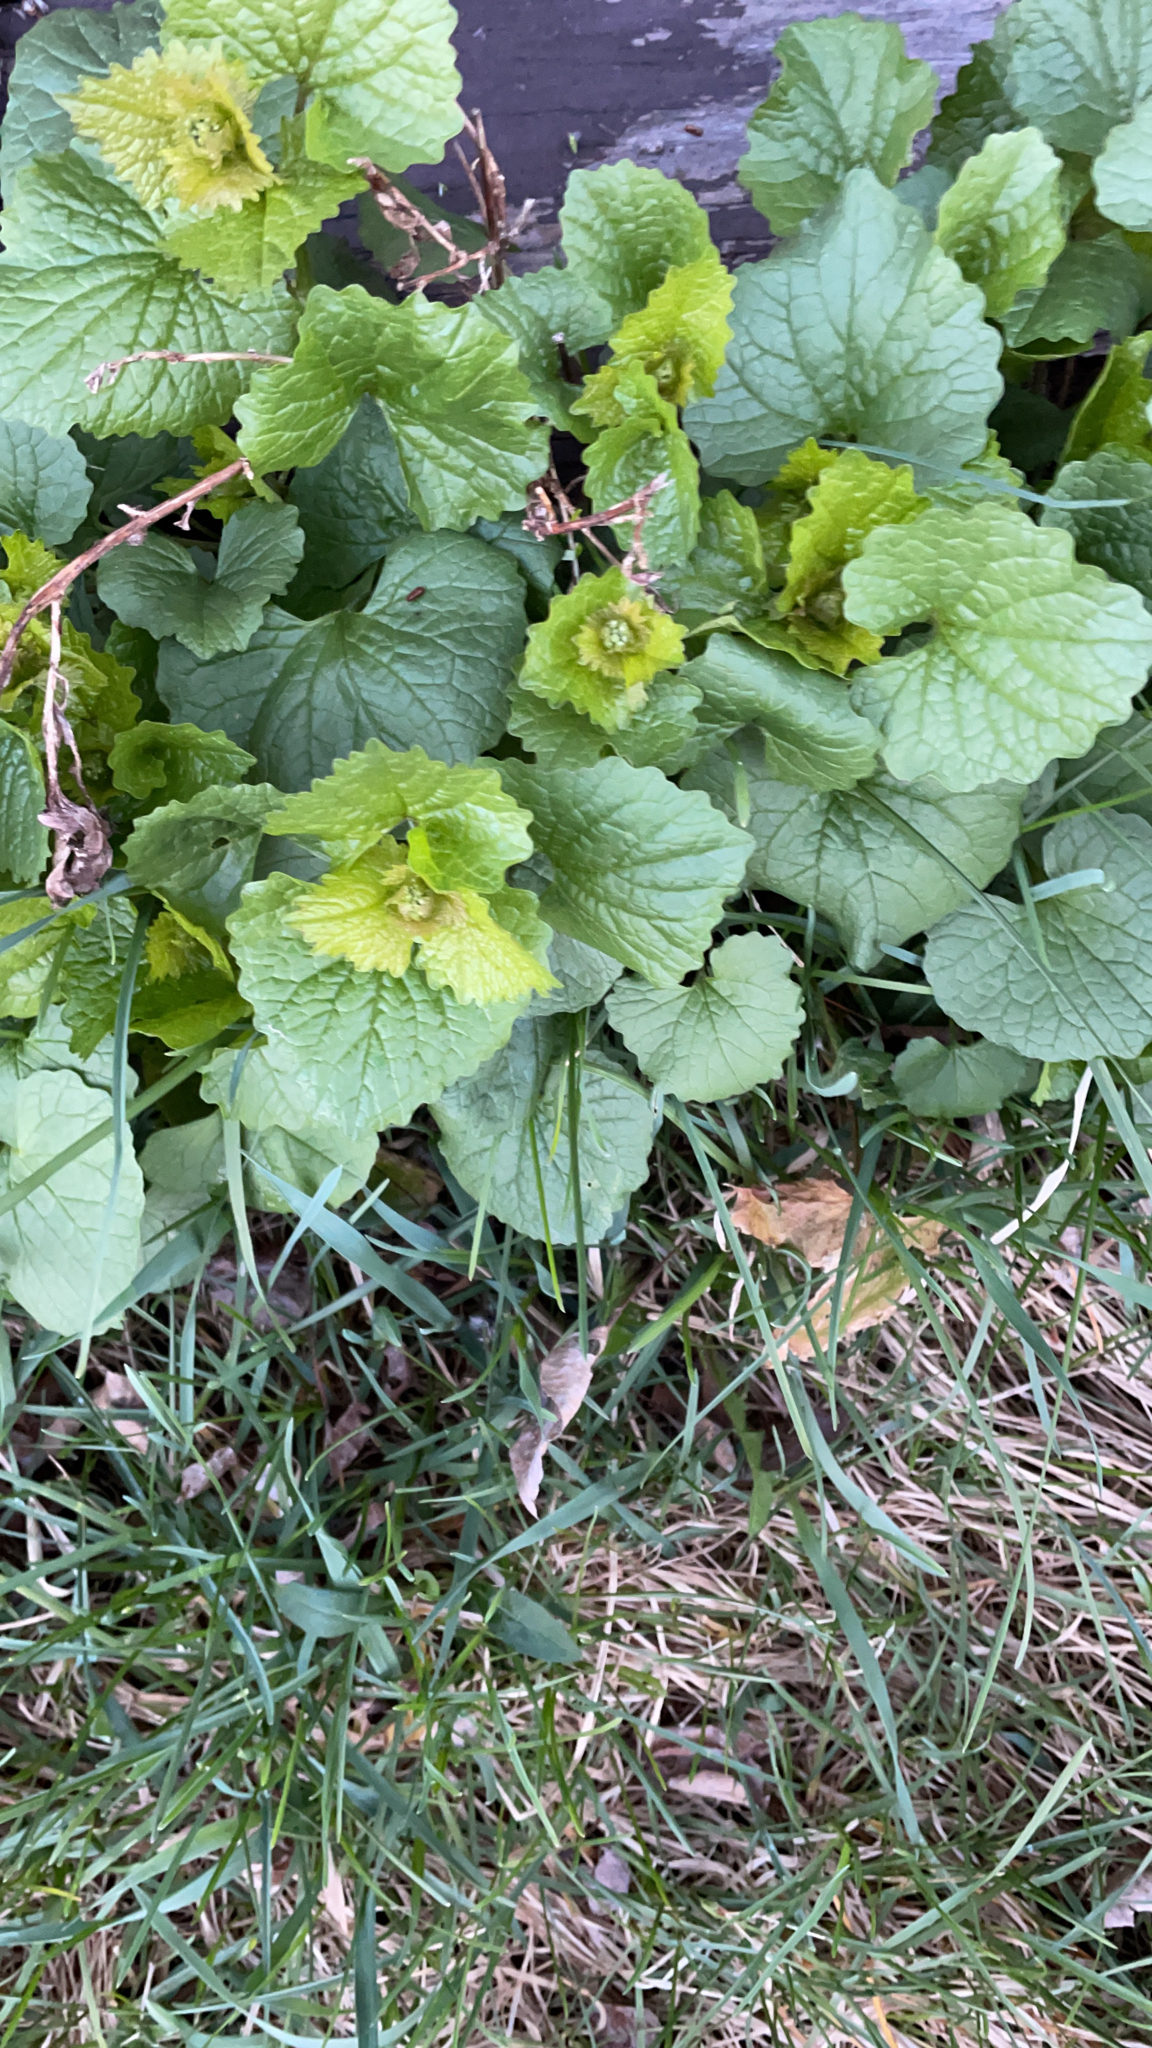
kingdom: Plantae
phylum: Tracheophyta
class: Magnoliopsida
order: Brassicales
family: Brassicaceae
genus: Alliaria
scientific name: Alliaria petiolata
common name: Garlic mustard
